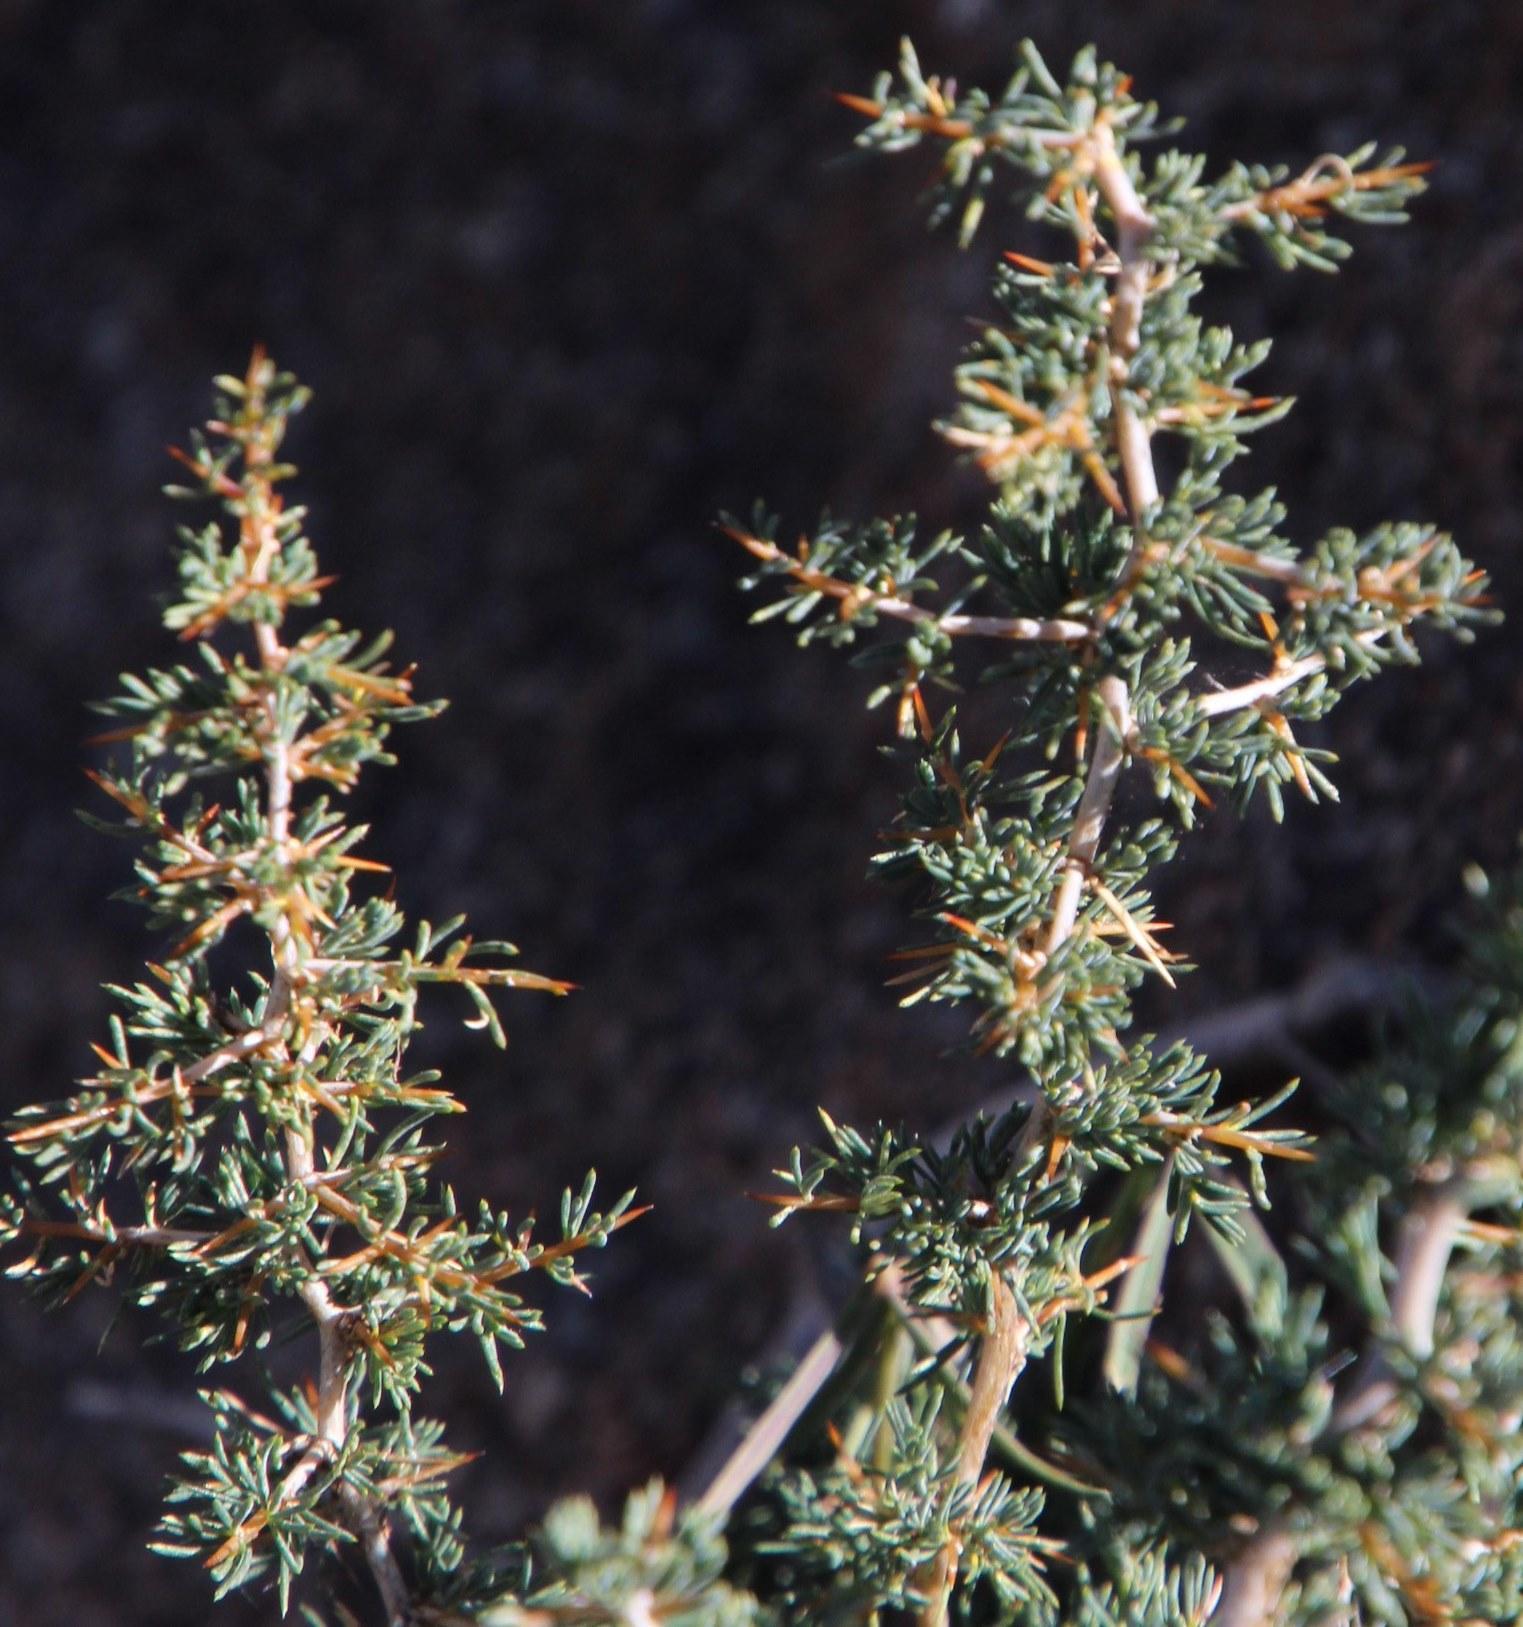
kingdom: Plantae
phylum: Tracheophyta
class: Liliopsida
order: Asparagales
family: Asparagaceae
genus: Asparagus
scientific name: Asparagus suaveolens
